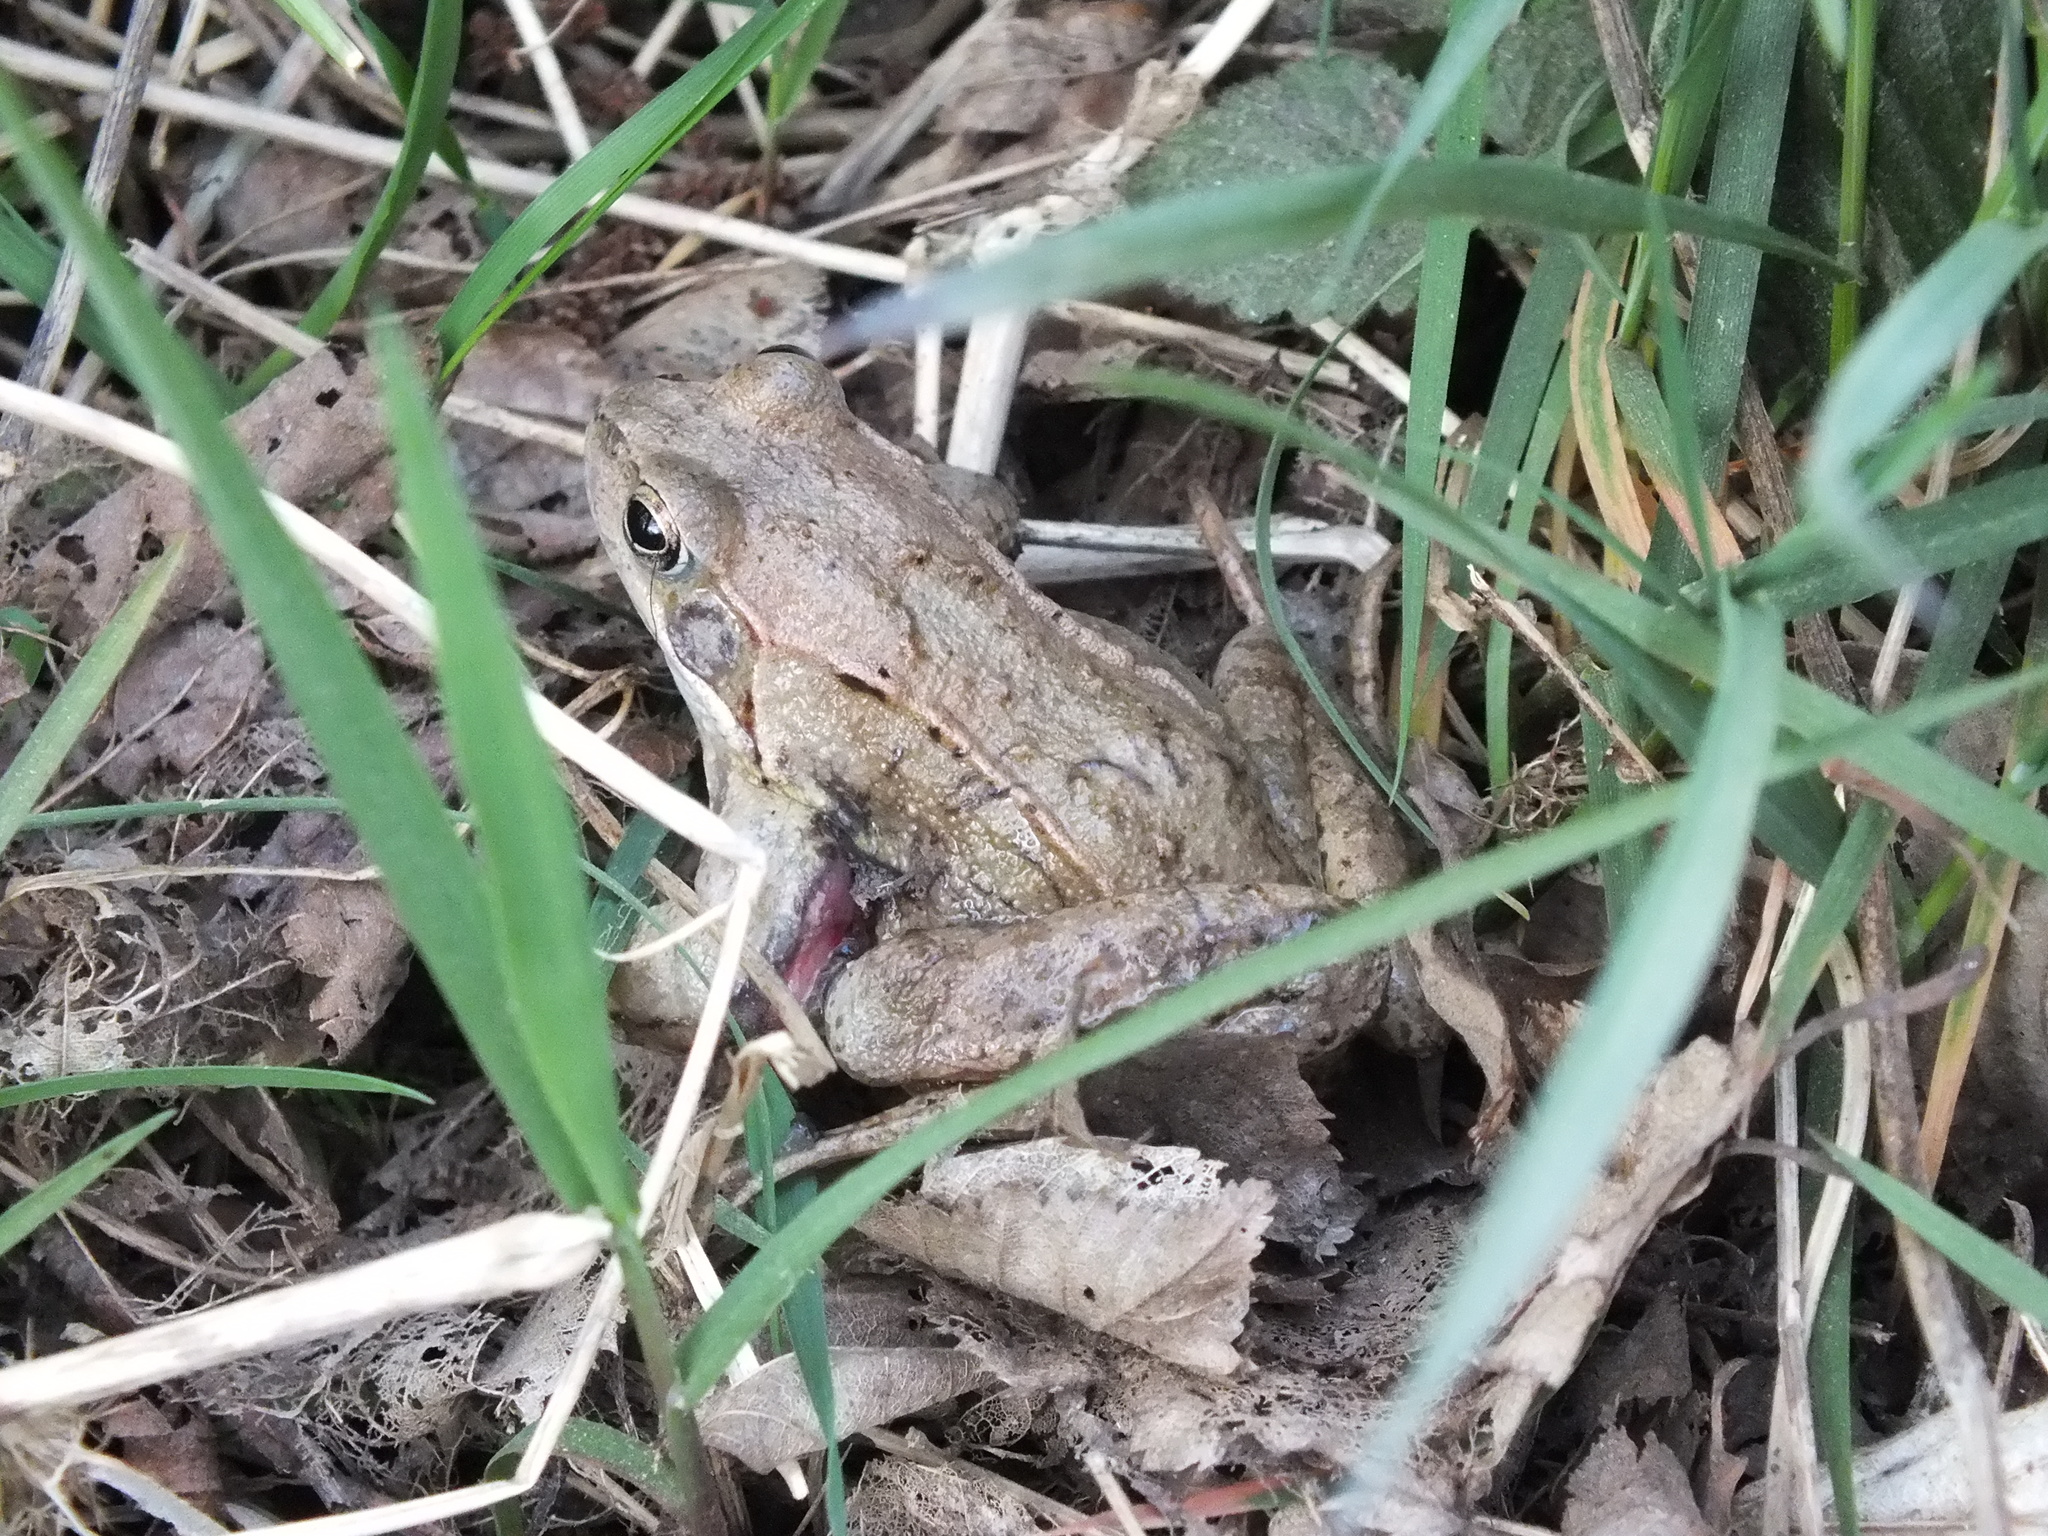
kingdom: Animalia
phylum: Chordata
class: Amphibia
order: Anura
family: Ranidae
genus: Rana
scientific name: Rana temporaria
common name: Common frog
